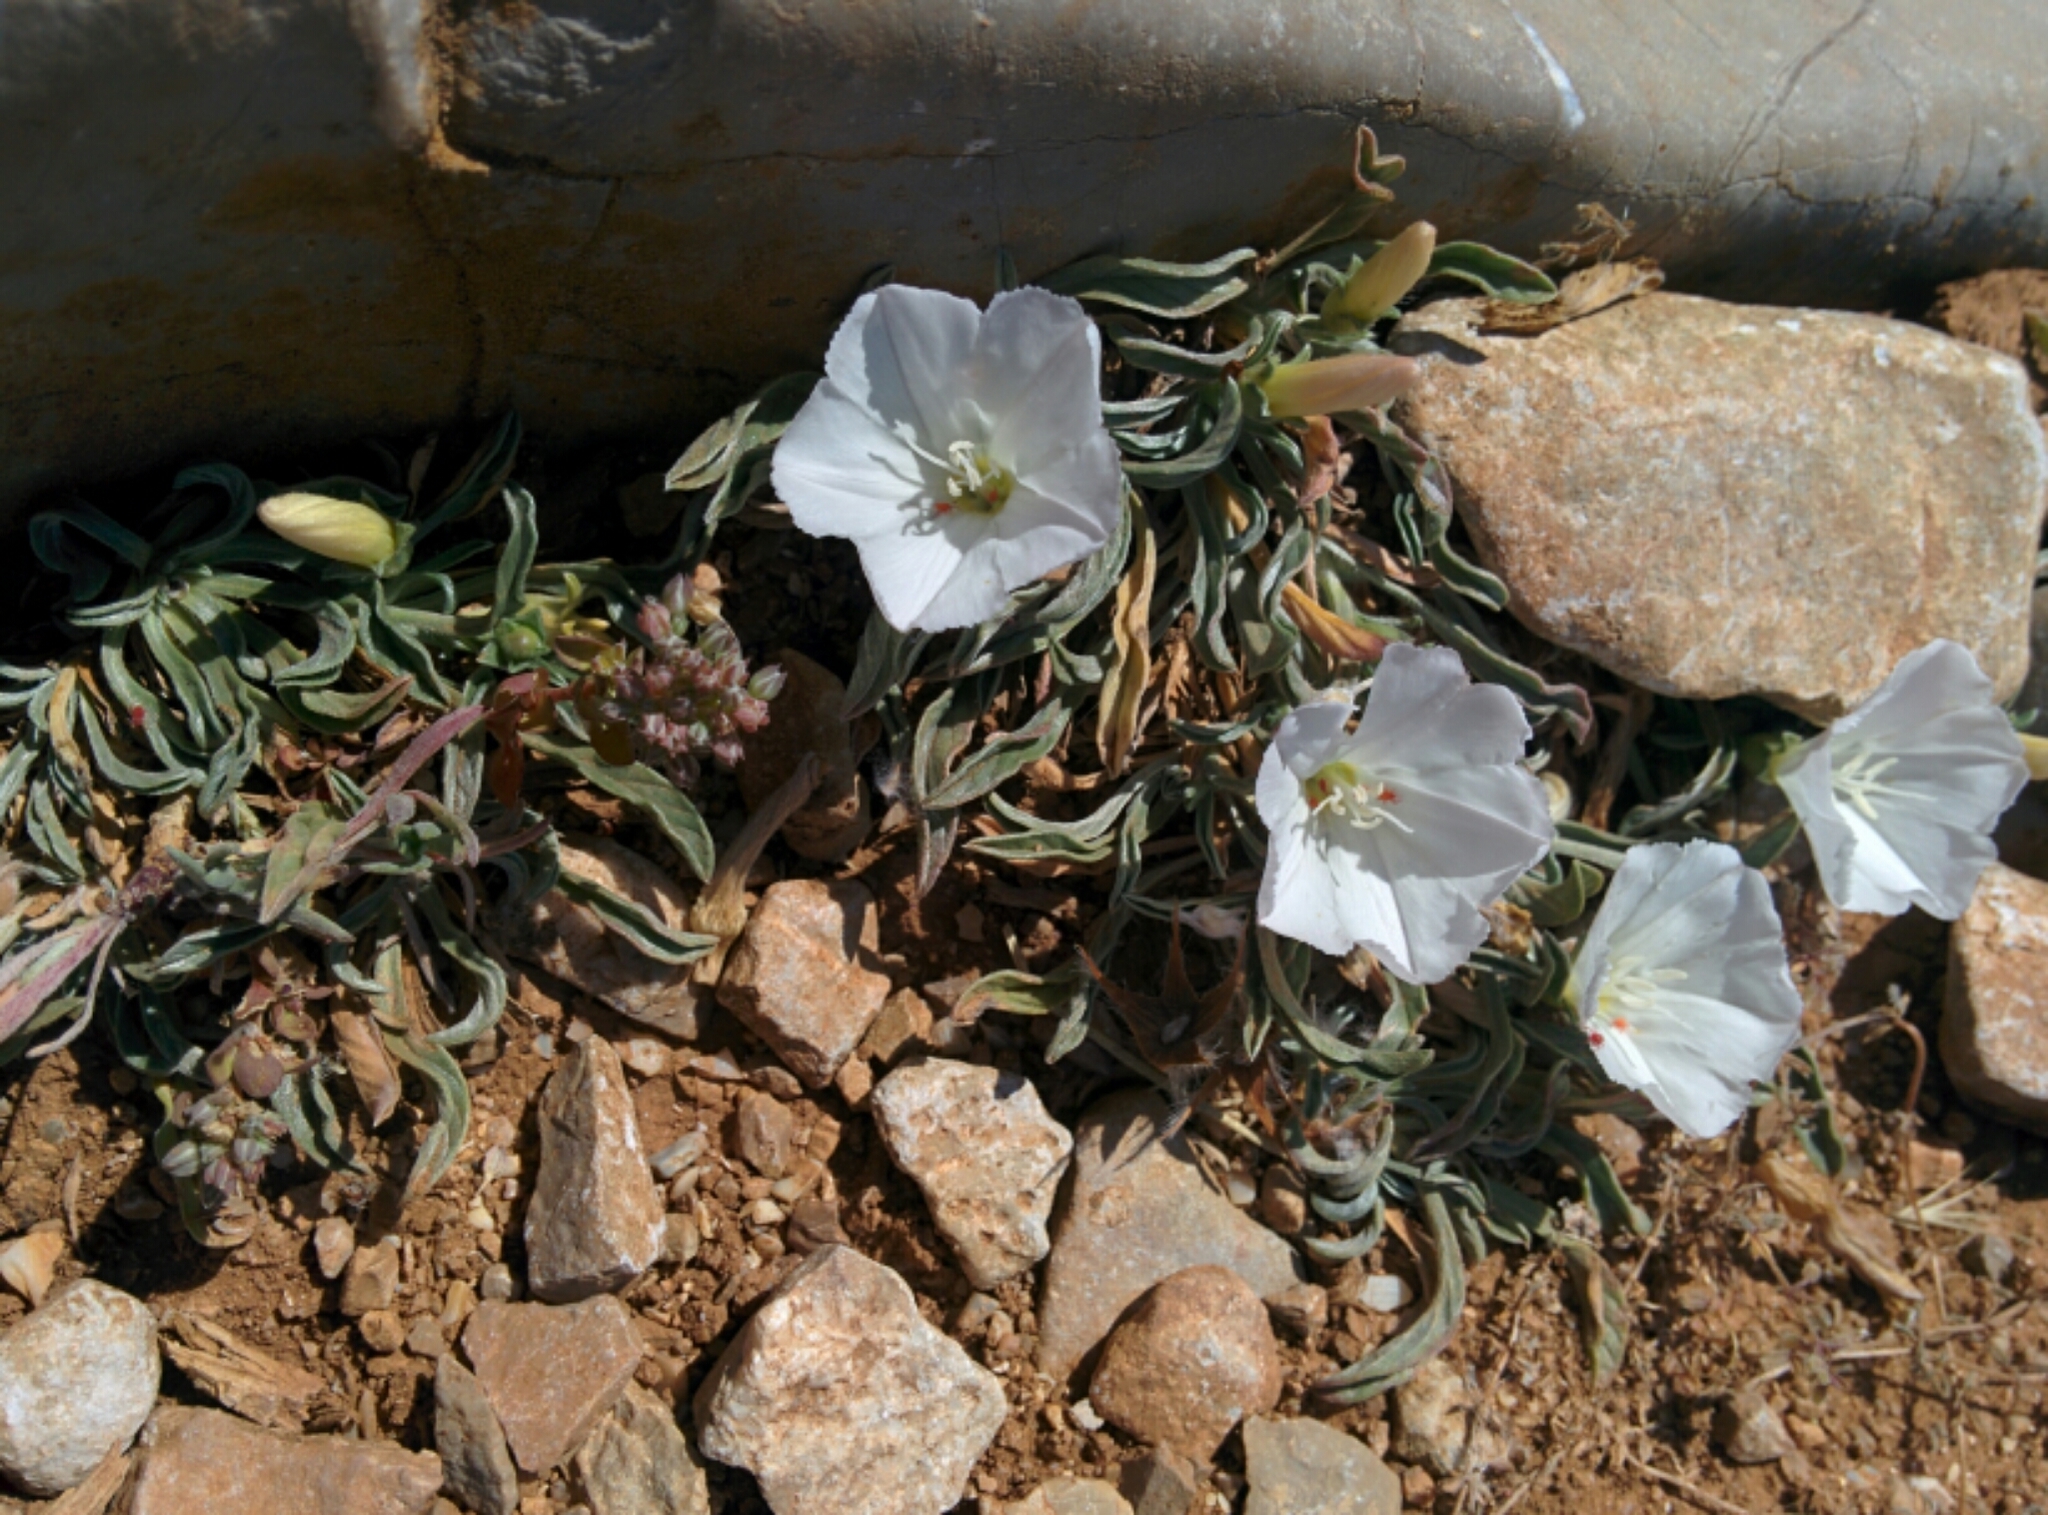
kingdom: Plantae
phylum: Tracheophyta
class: Magnoliopsida
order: Solanales
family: Convolvulaceae
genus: Convolvulus
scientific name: Convolvulus lineatus
